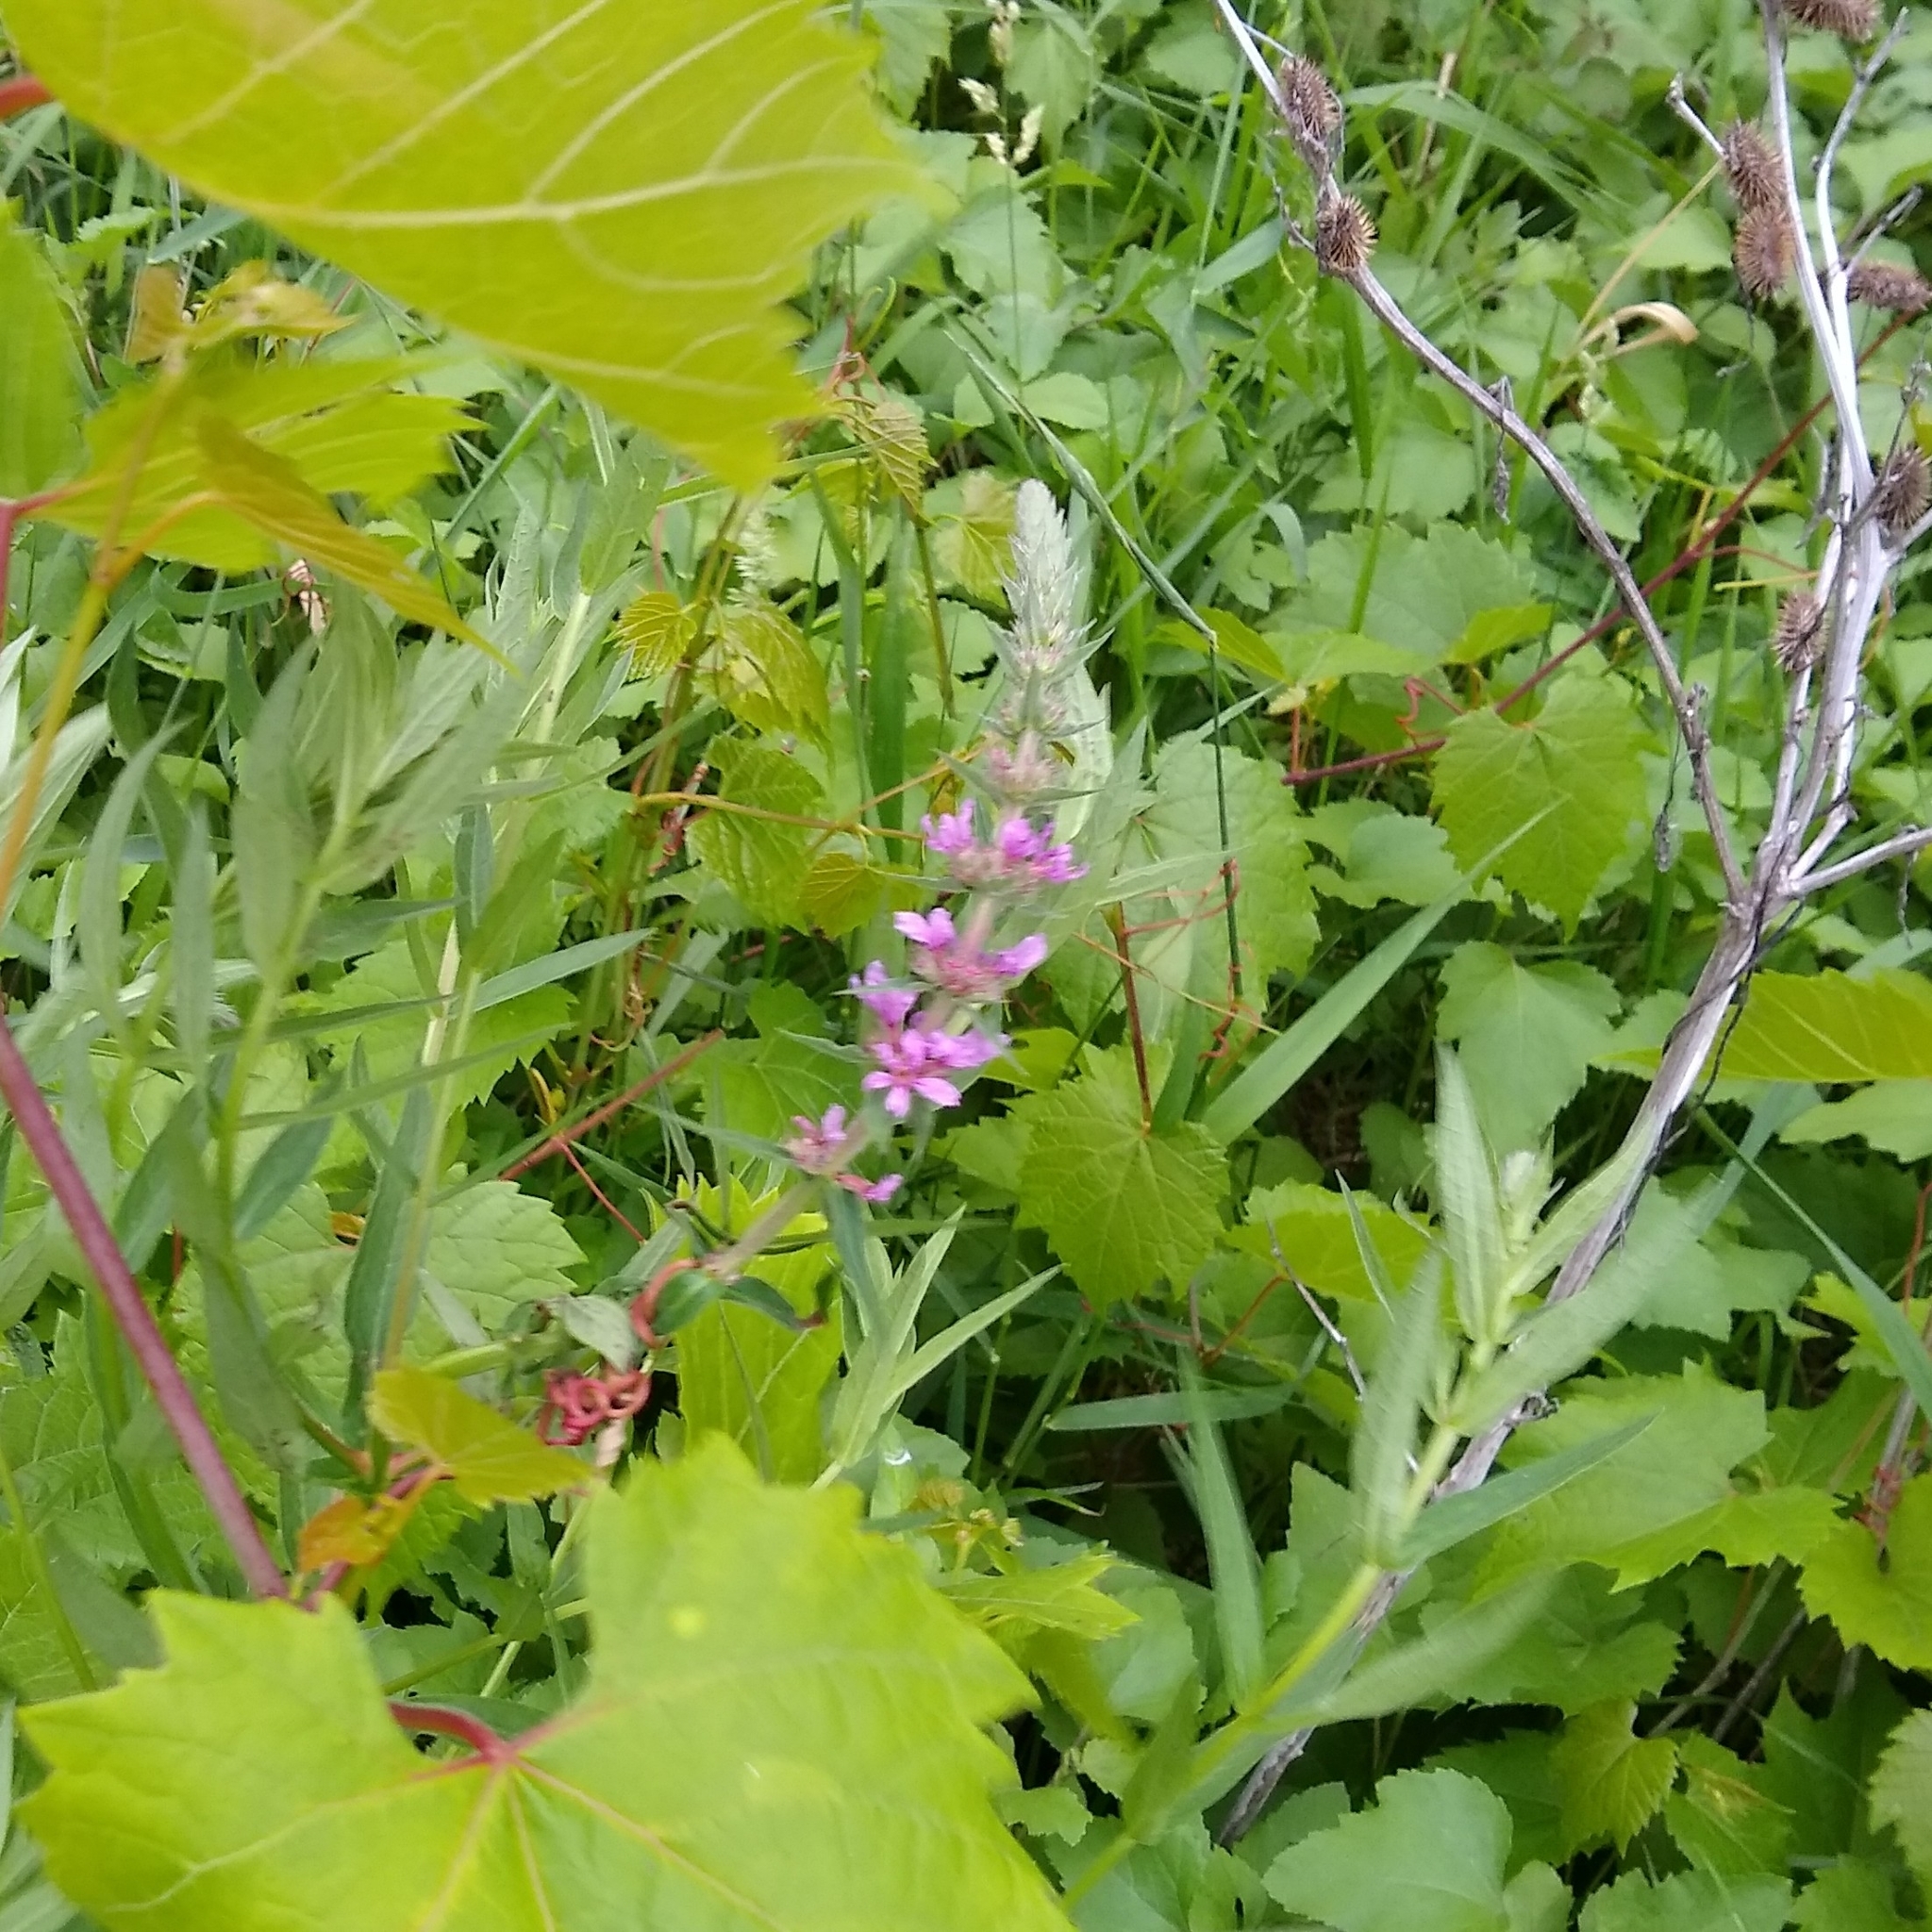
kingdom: Plantae
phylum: Tracheophyta
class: Magnoliopsida
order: Myrtales
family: Lythraceae
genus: Lythrum
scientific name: Lythrum salicaria
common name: Purple loosestrife
